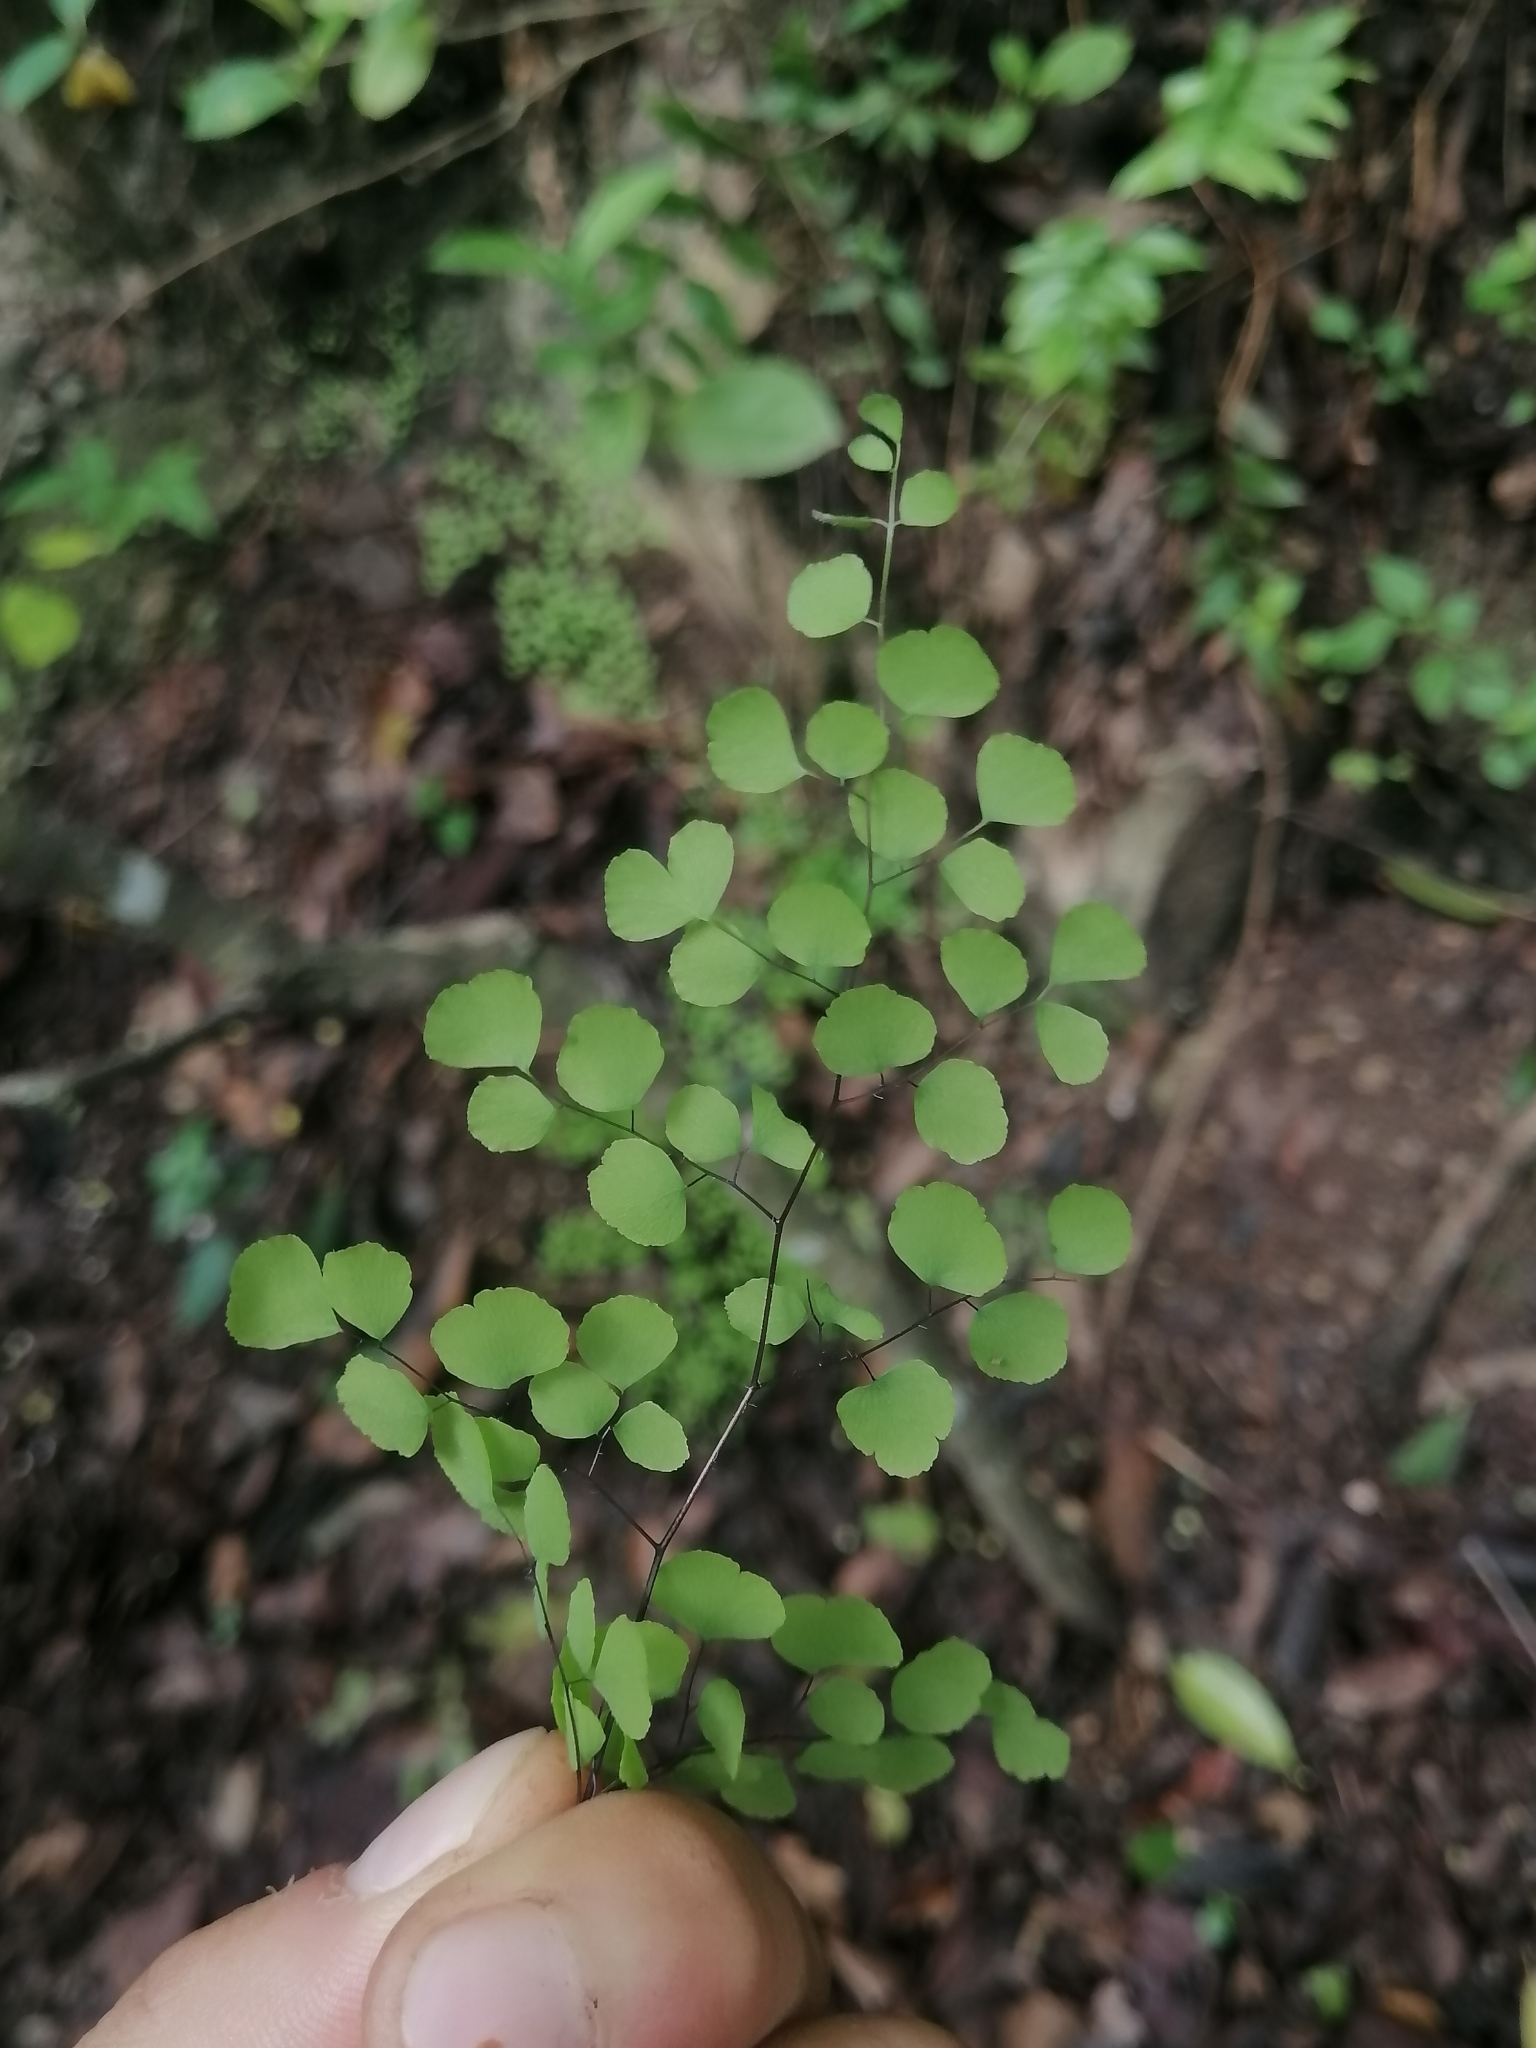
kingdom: Plantae
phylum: Tracheophyta
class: Polypodiopsida
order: Polypodiales
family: Pteridaceae
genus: Adiantum
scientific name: Adiantum tricholepis
